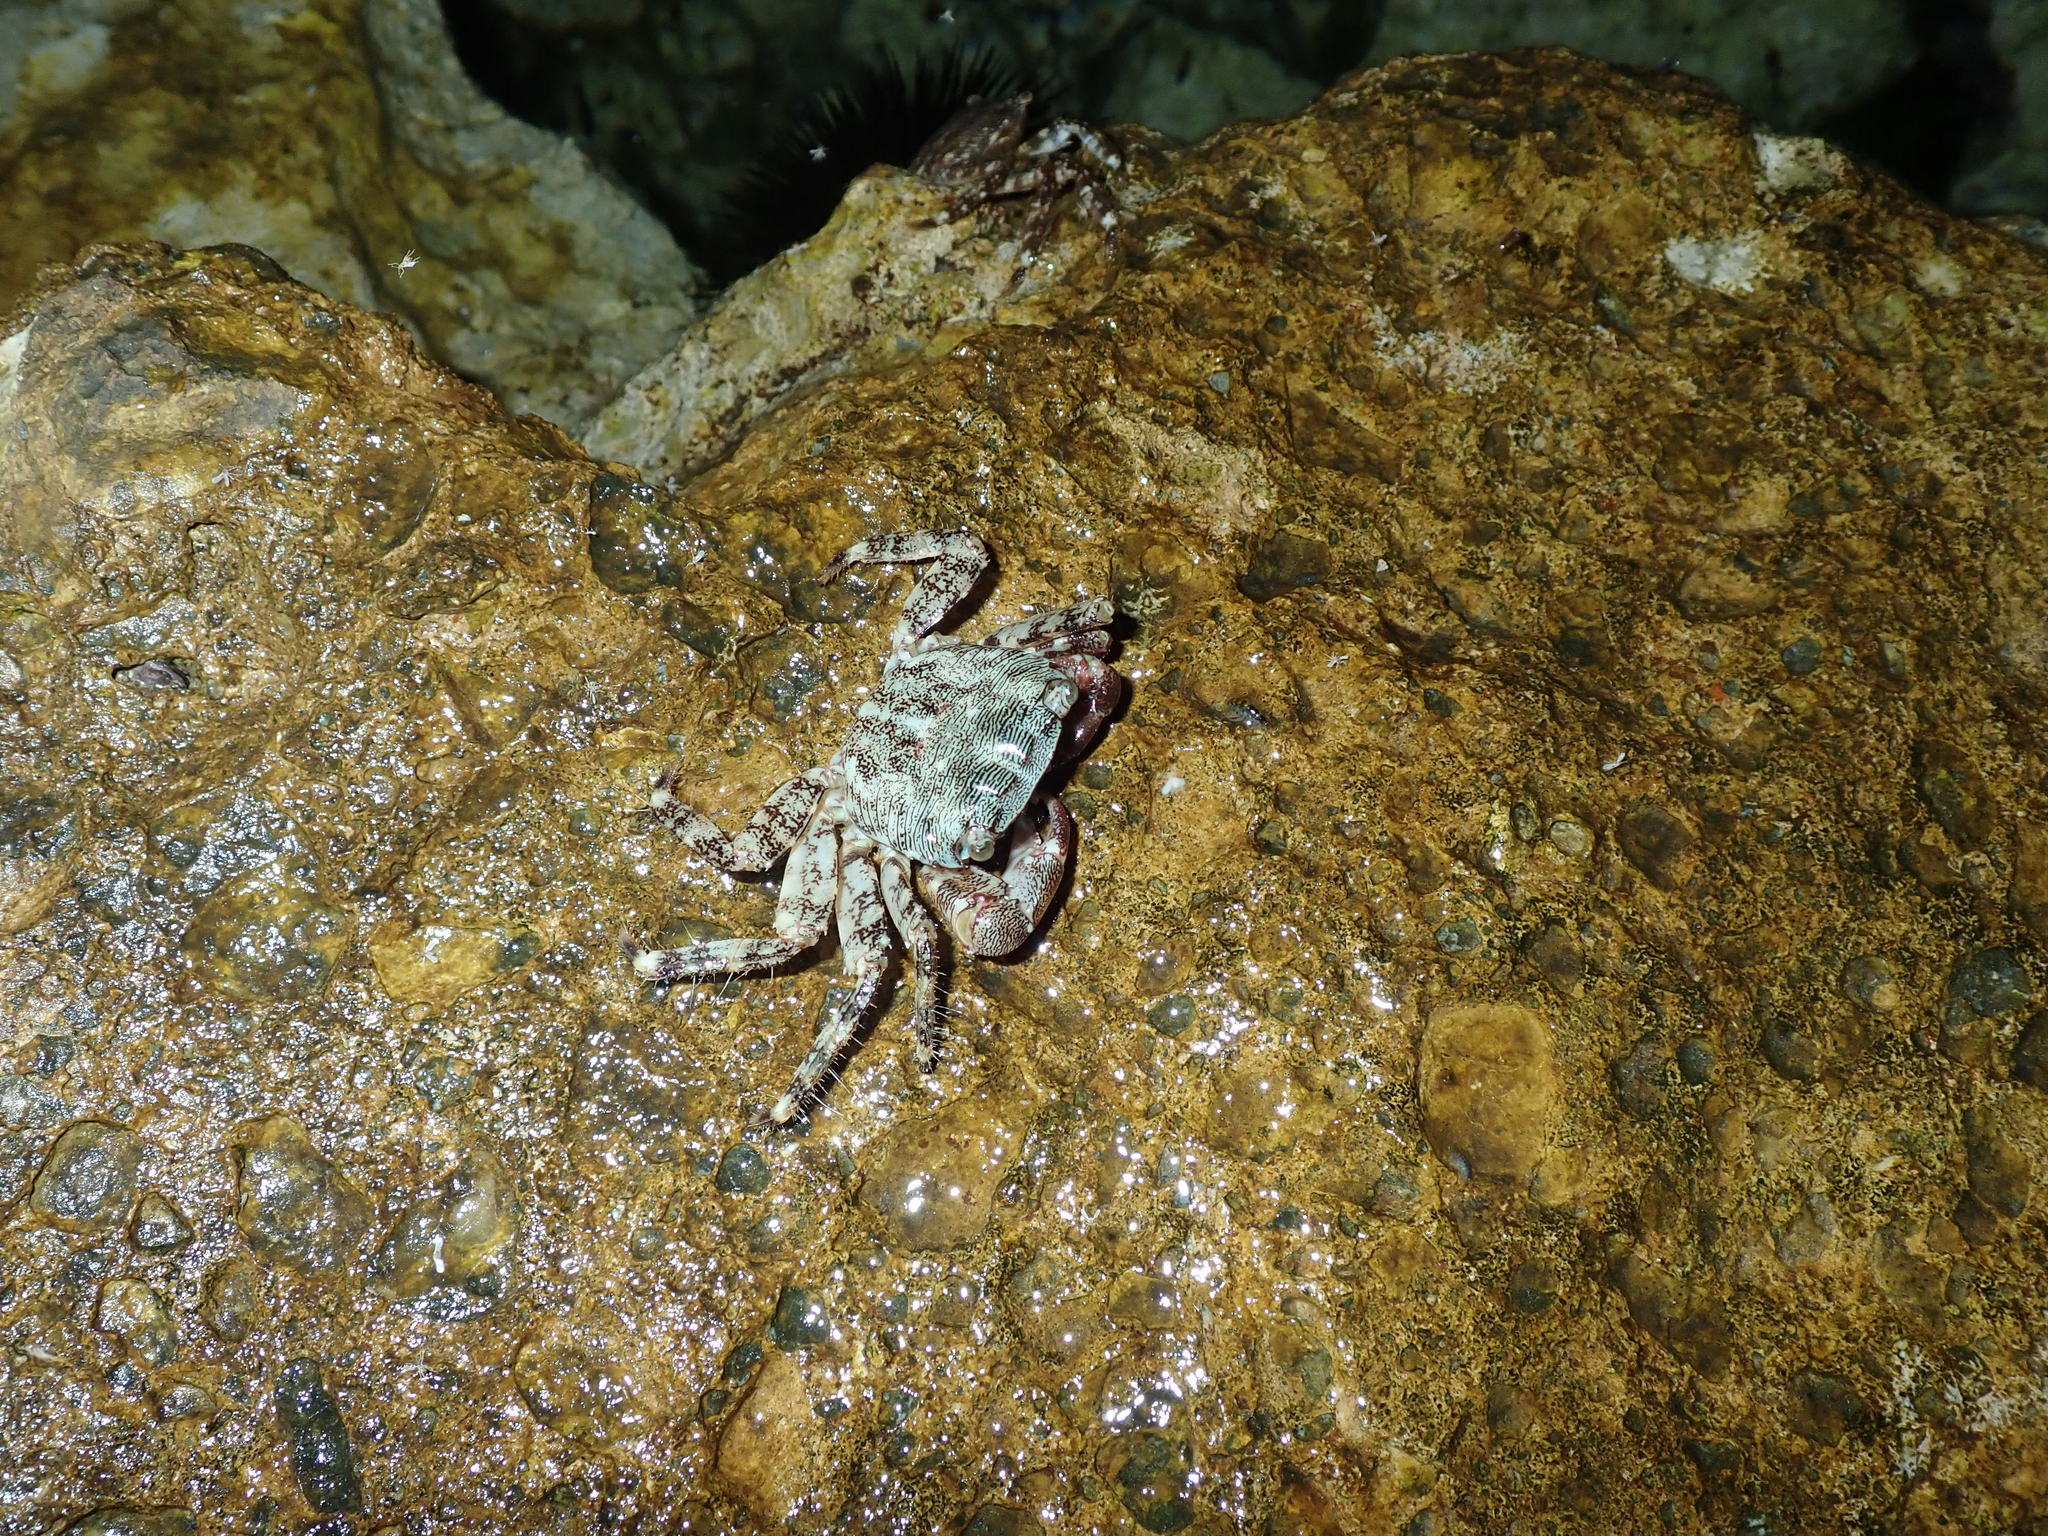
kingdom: Animalia
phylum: Arthropoda
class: Malacostraca
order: Decapoda
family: Grapsidae
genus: Pachygrapsus
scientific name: Pachygrapsus marmoratus
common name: Marbled rock crab
